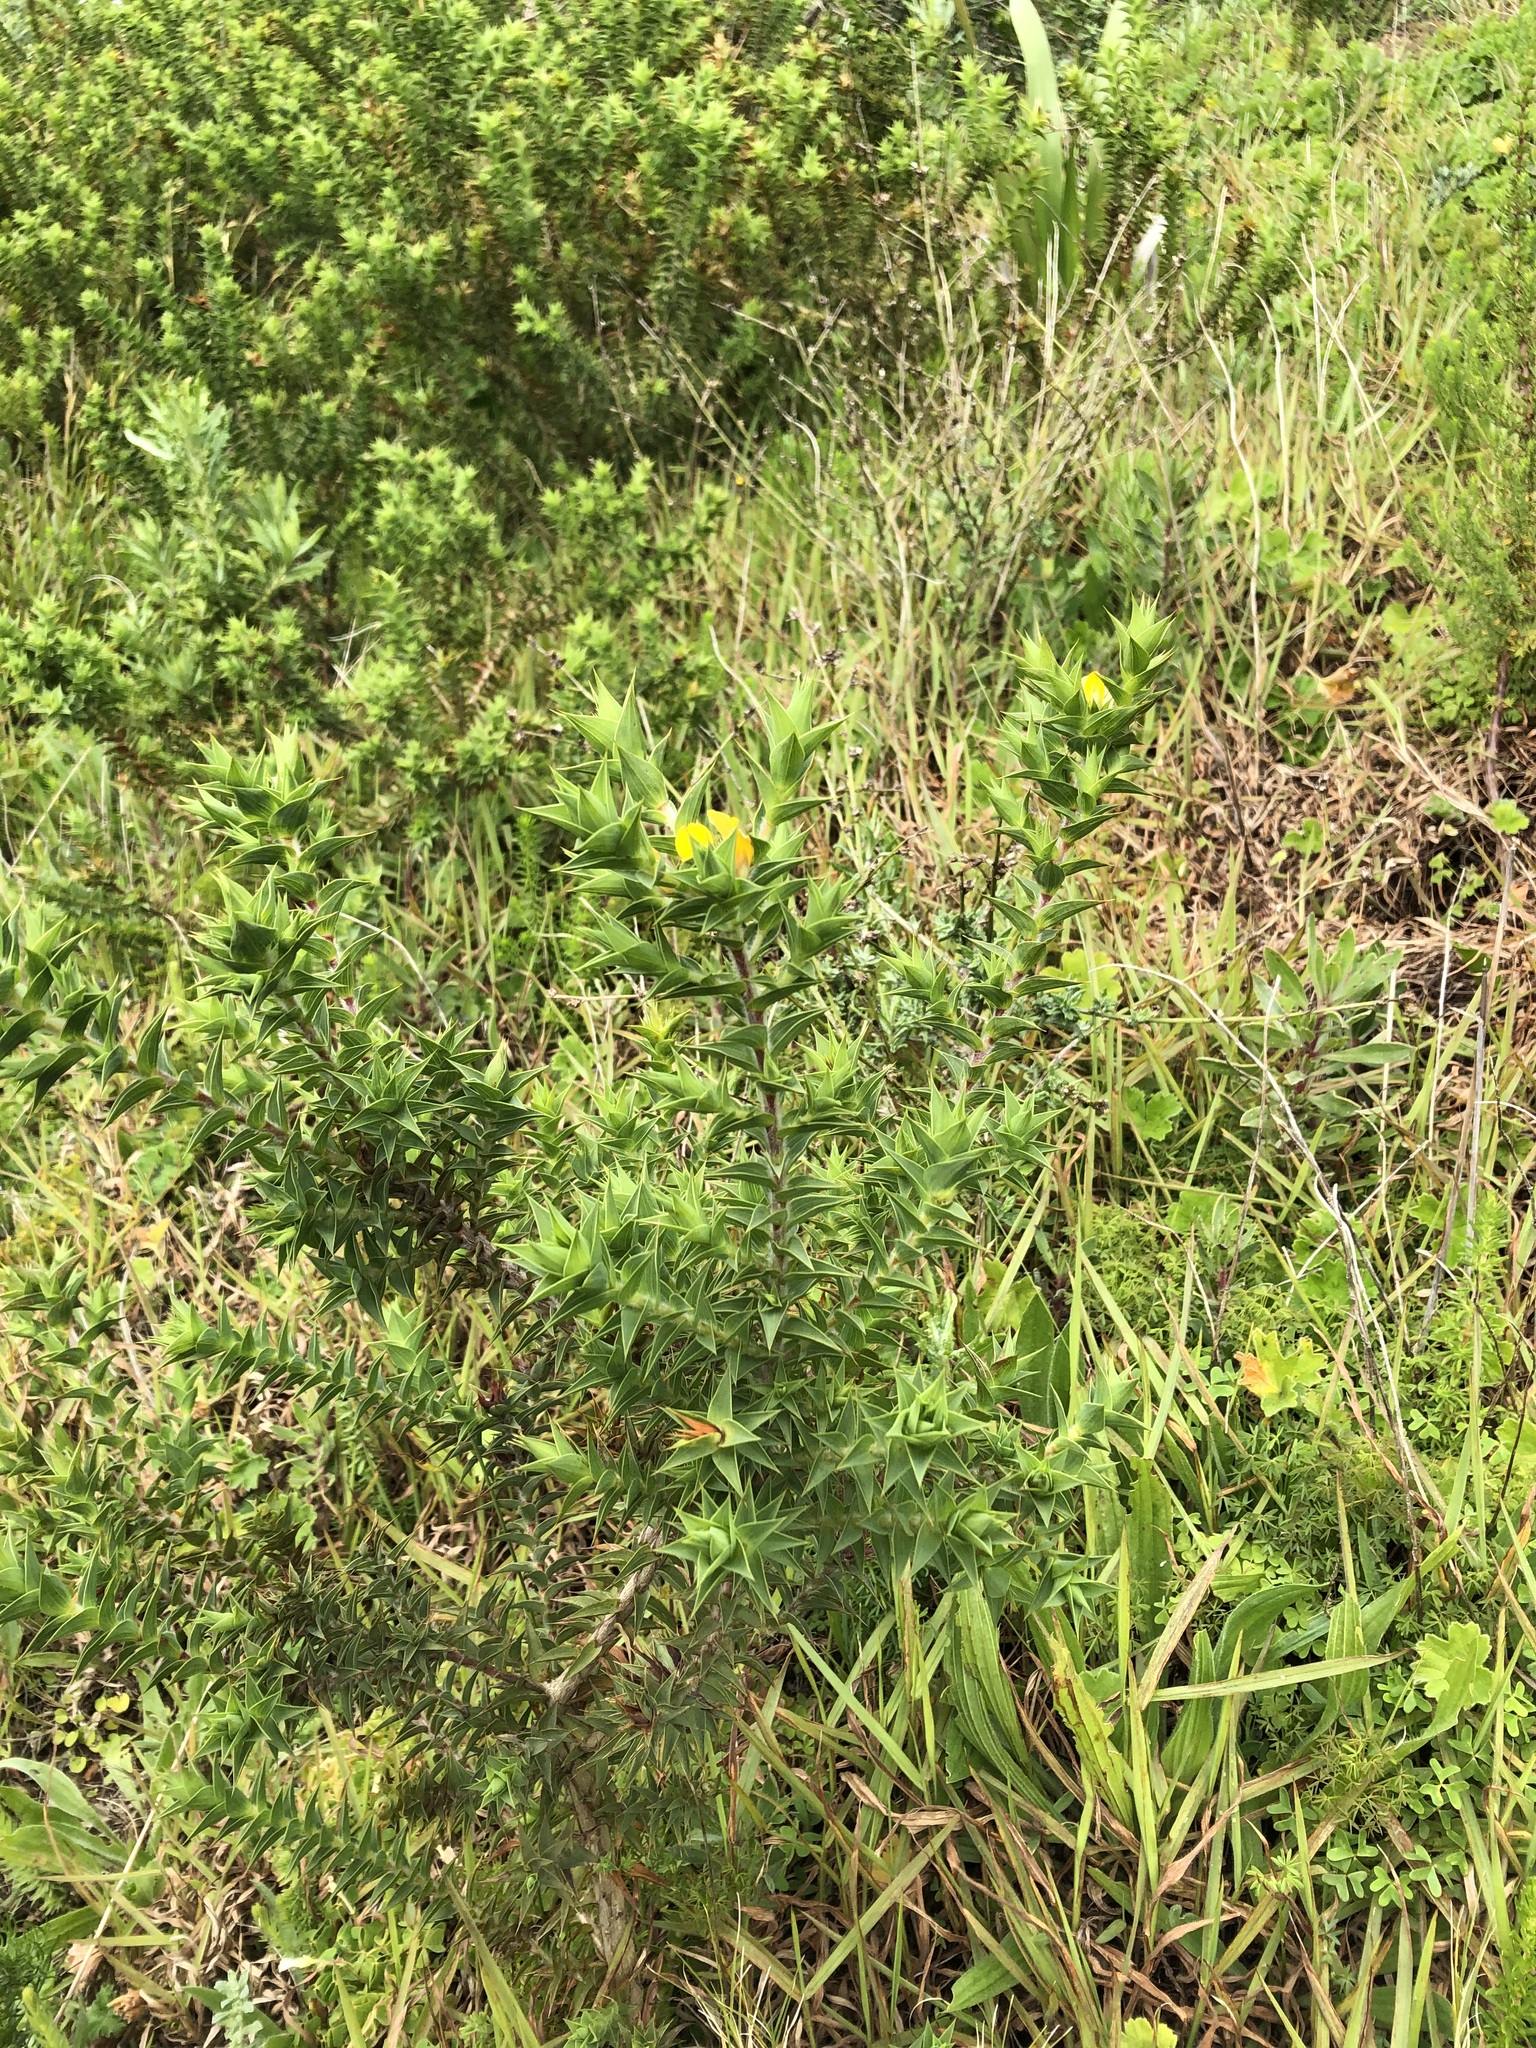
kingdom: Plantae
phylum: Tracheophyta
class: Magnoliopsida
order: Fabales
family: Fabaceae
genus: Aspalathus
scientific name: Aspalathus cordata
